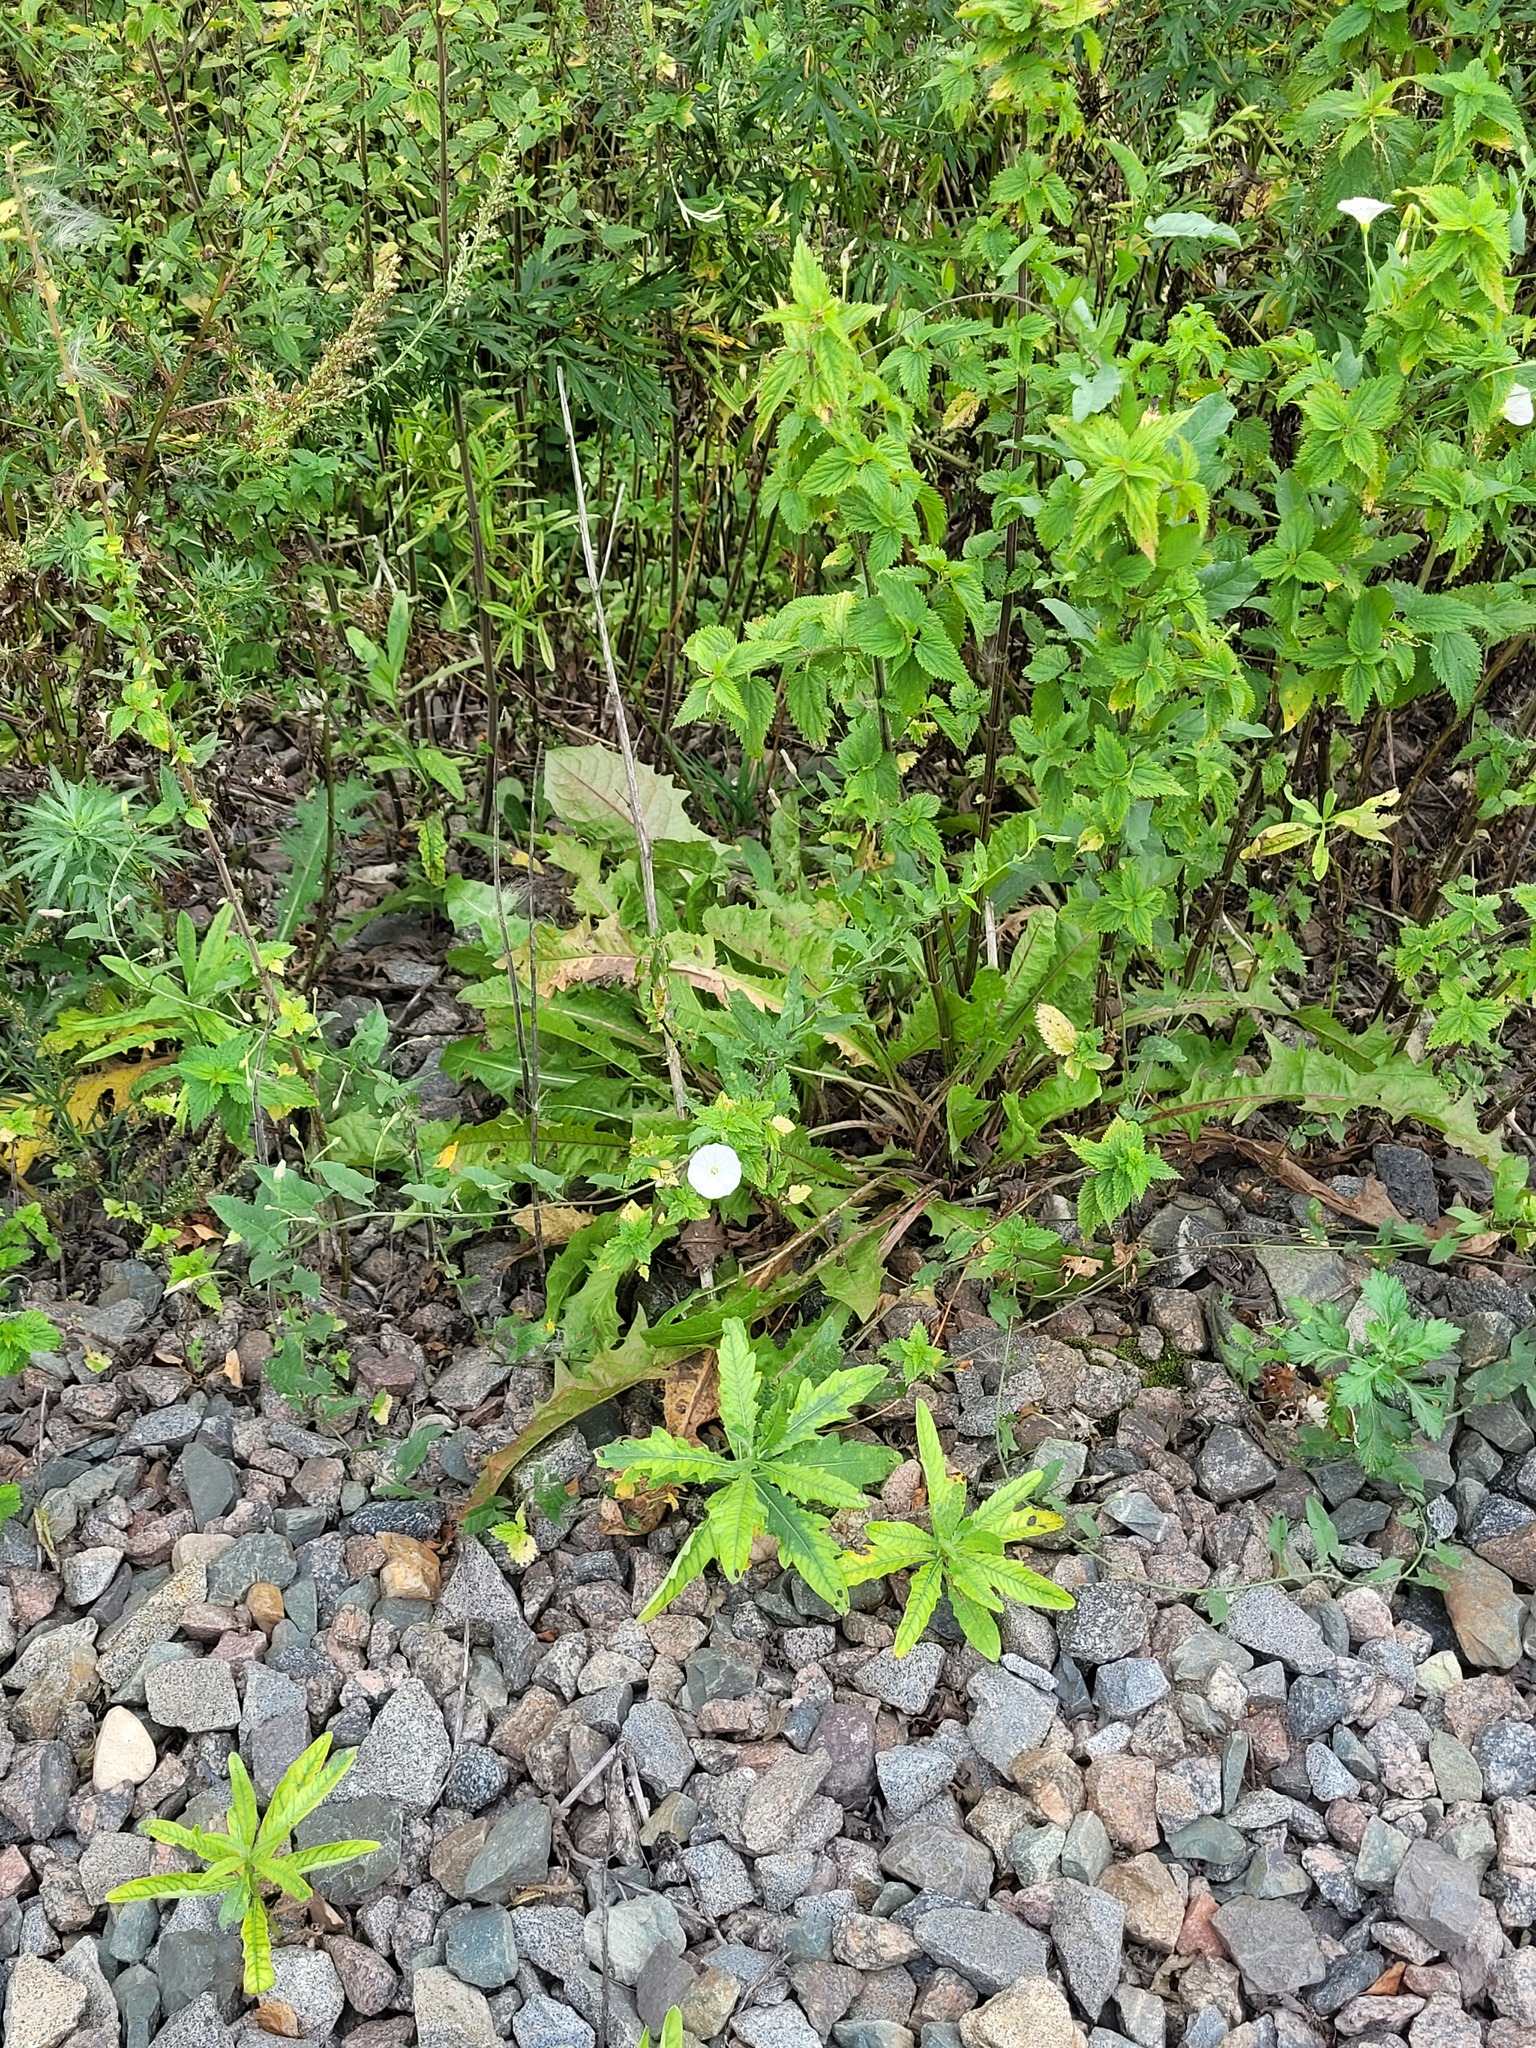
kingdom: Plantae
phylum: Tracheophyta
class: Magnoliopsida
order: Solanales
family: Convolvulaceae
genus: Convolvulus
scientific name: Convolvulus arvensis
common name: Field bindweed
